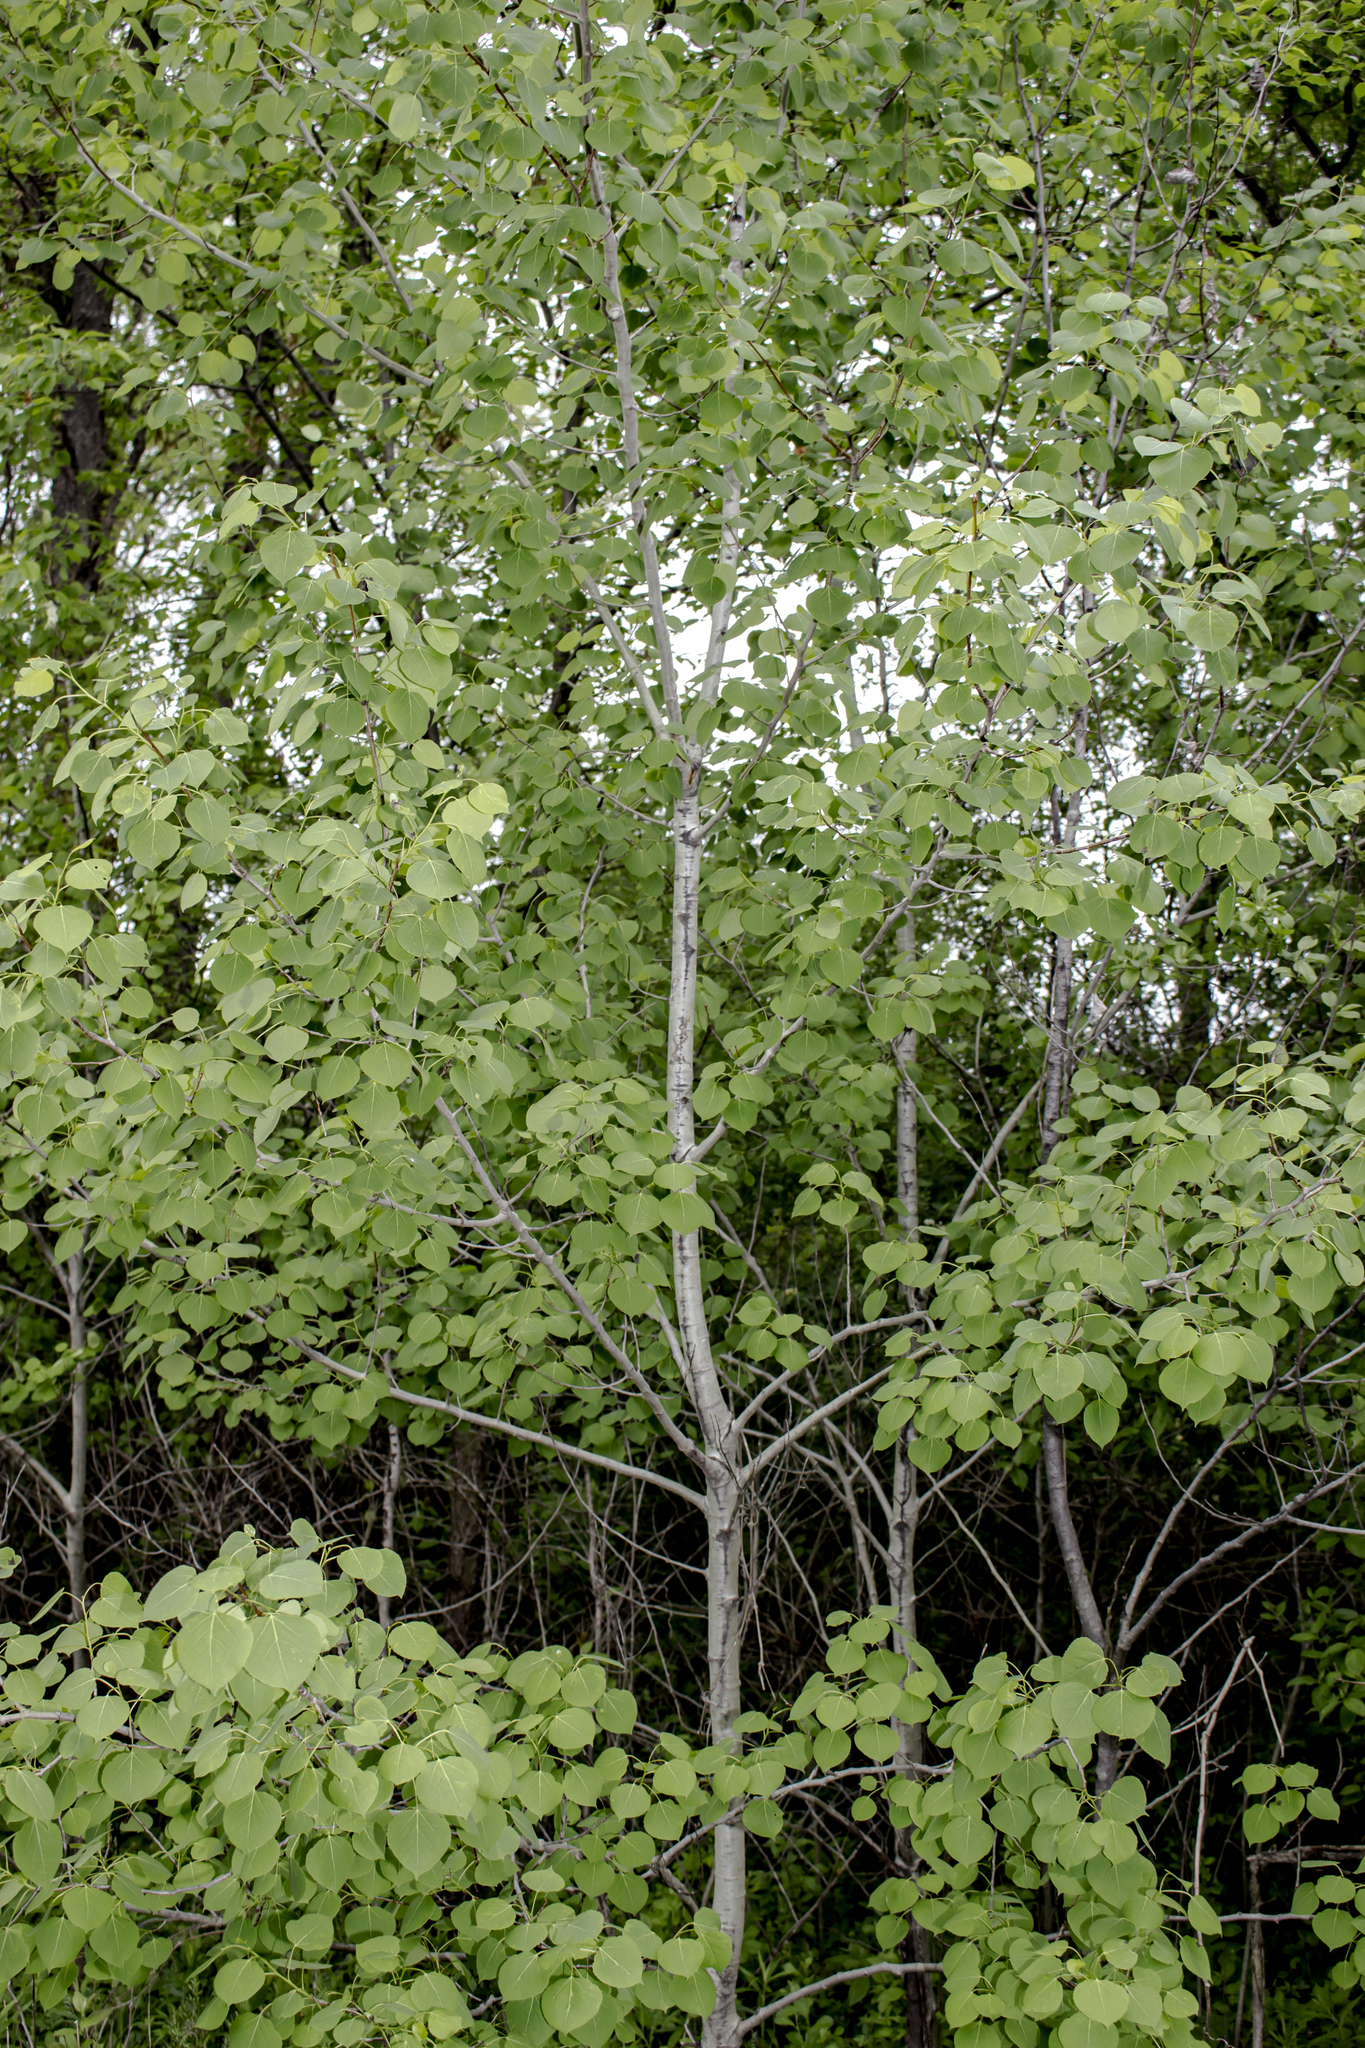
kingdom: Plantae
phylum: Tracheophyta
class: Magnoliopsida
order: Malpighiales
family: Salicaceae
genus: Populus
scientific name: Populus tremuloides
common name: Quaking aspen
